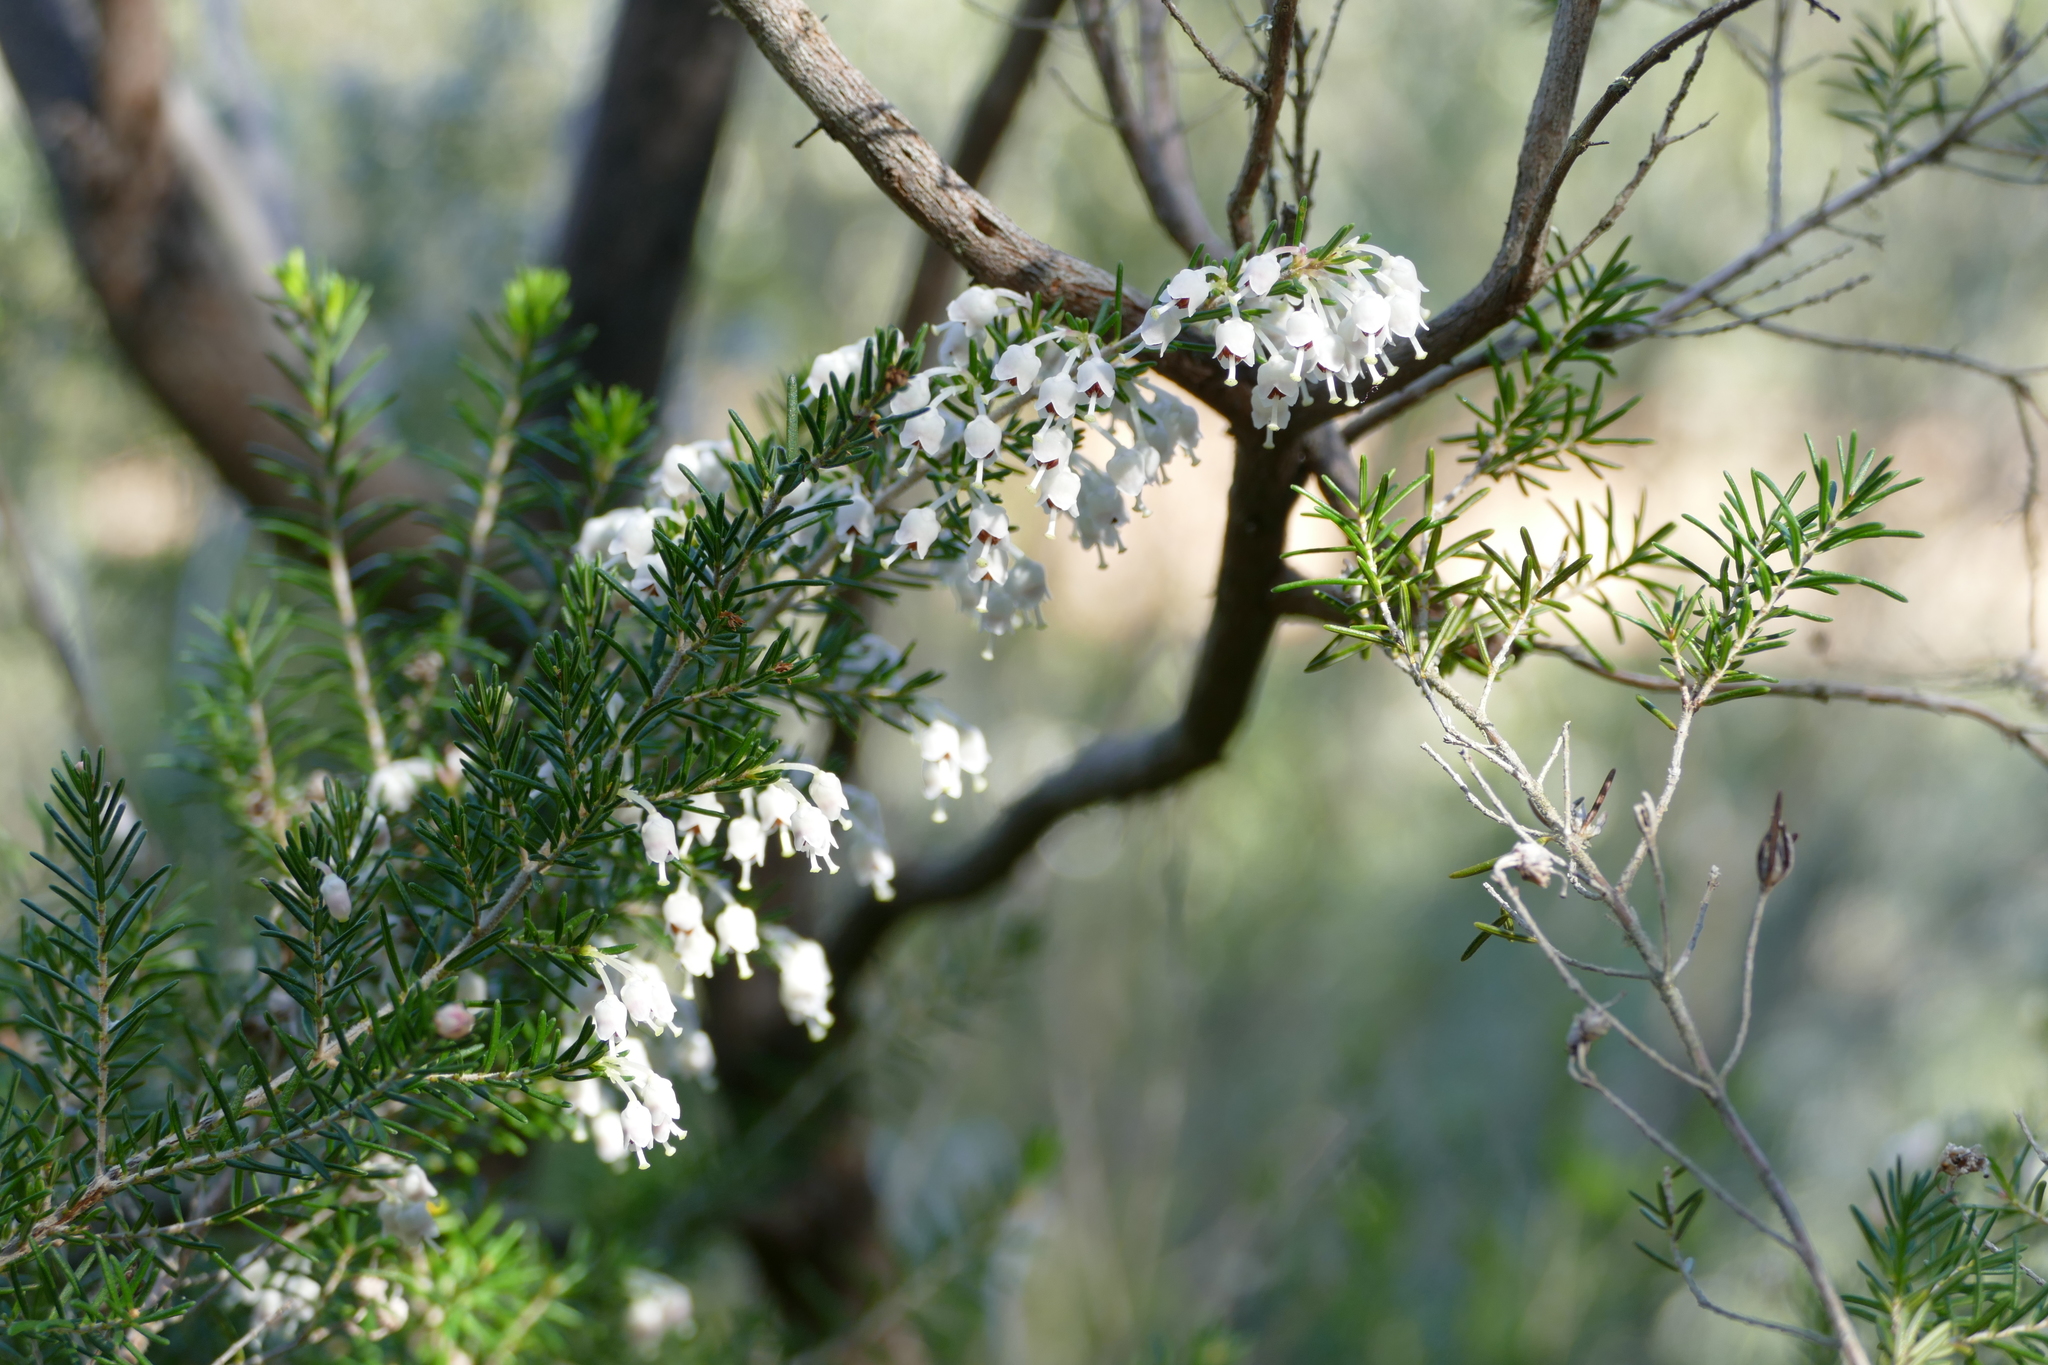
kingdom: Plantae
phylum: Tracheophyta
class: Magnoliopsida
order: Ericales
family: Ericaceae
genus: Erica
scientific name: Erica arborea
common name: Tree heath
